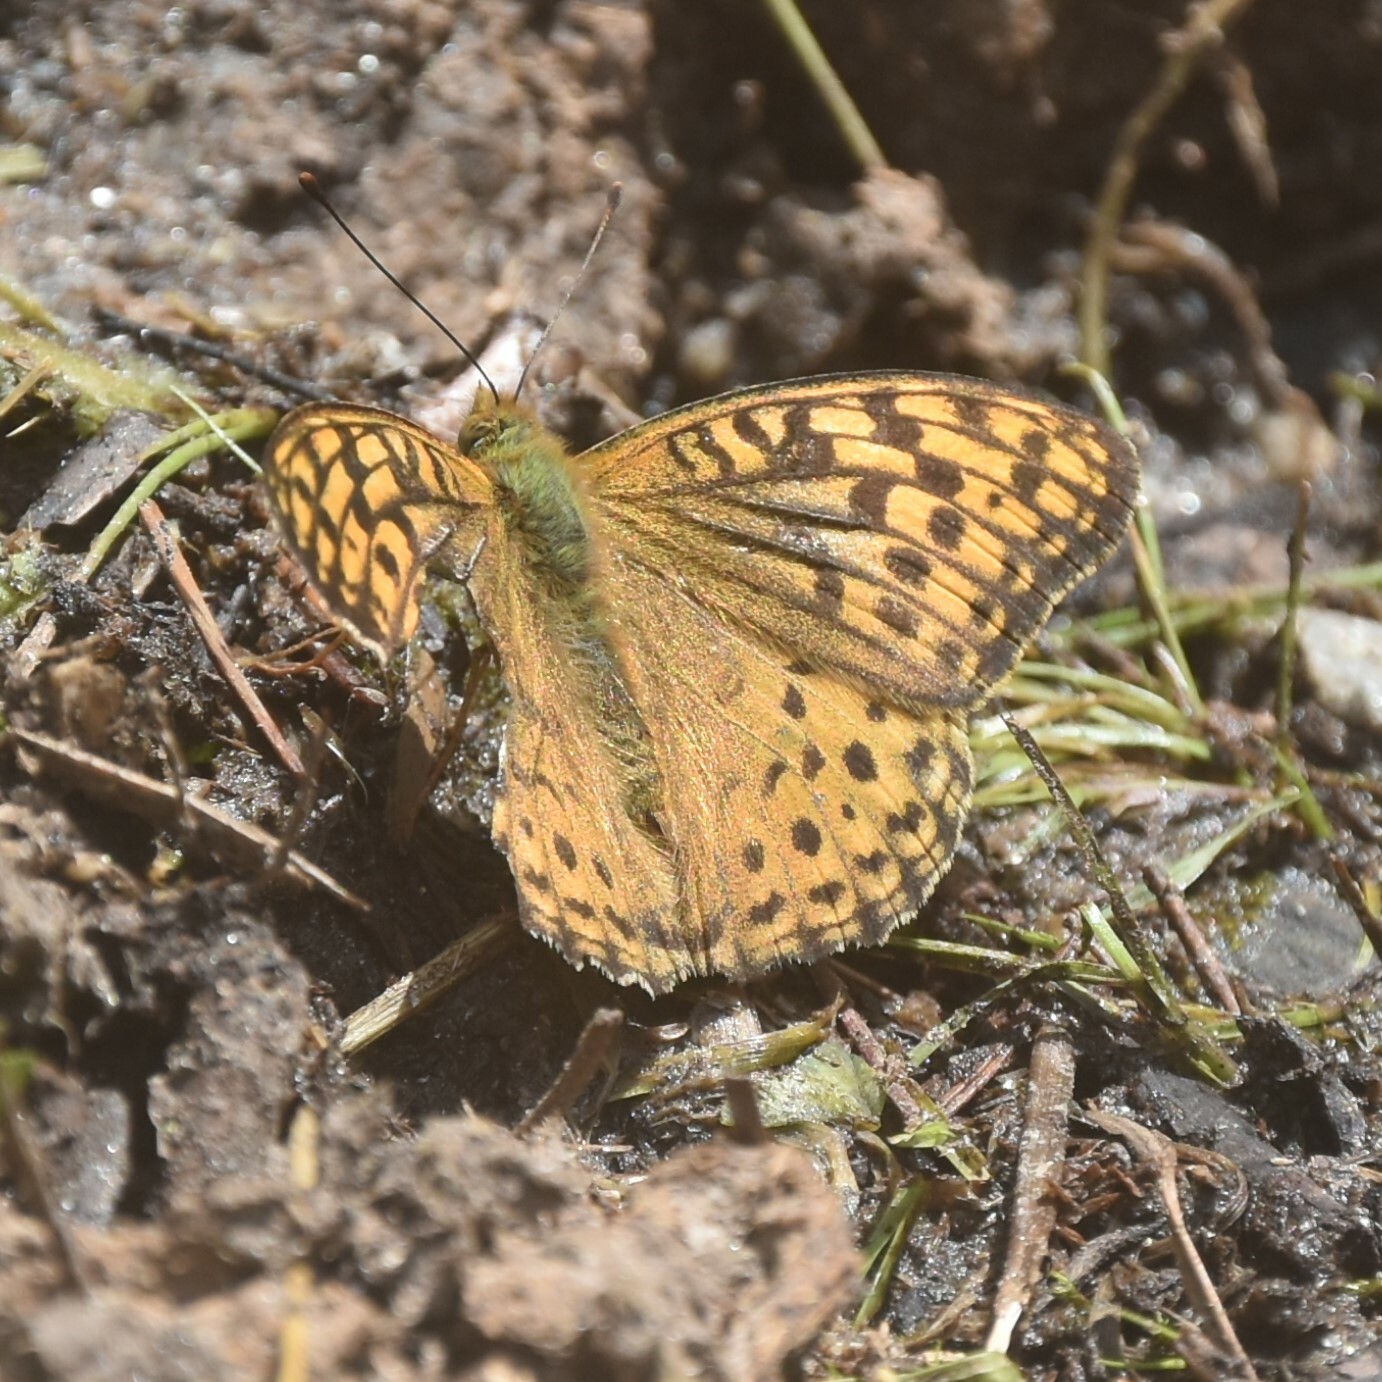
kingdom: Animalia
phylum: Arthropoda
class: Insecta
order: Lepidoptera
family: Nymphalidae
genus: Fabriciana
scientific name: Fabriciana kamala
